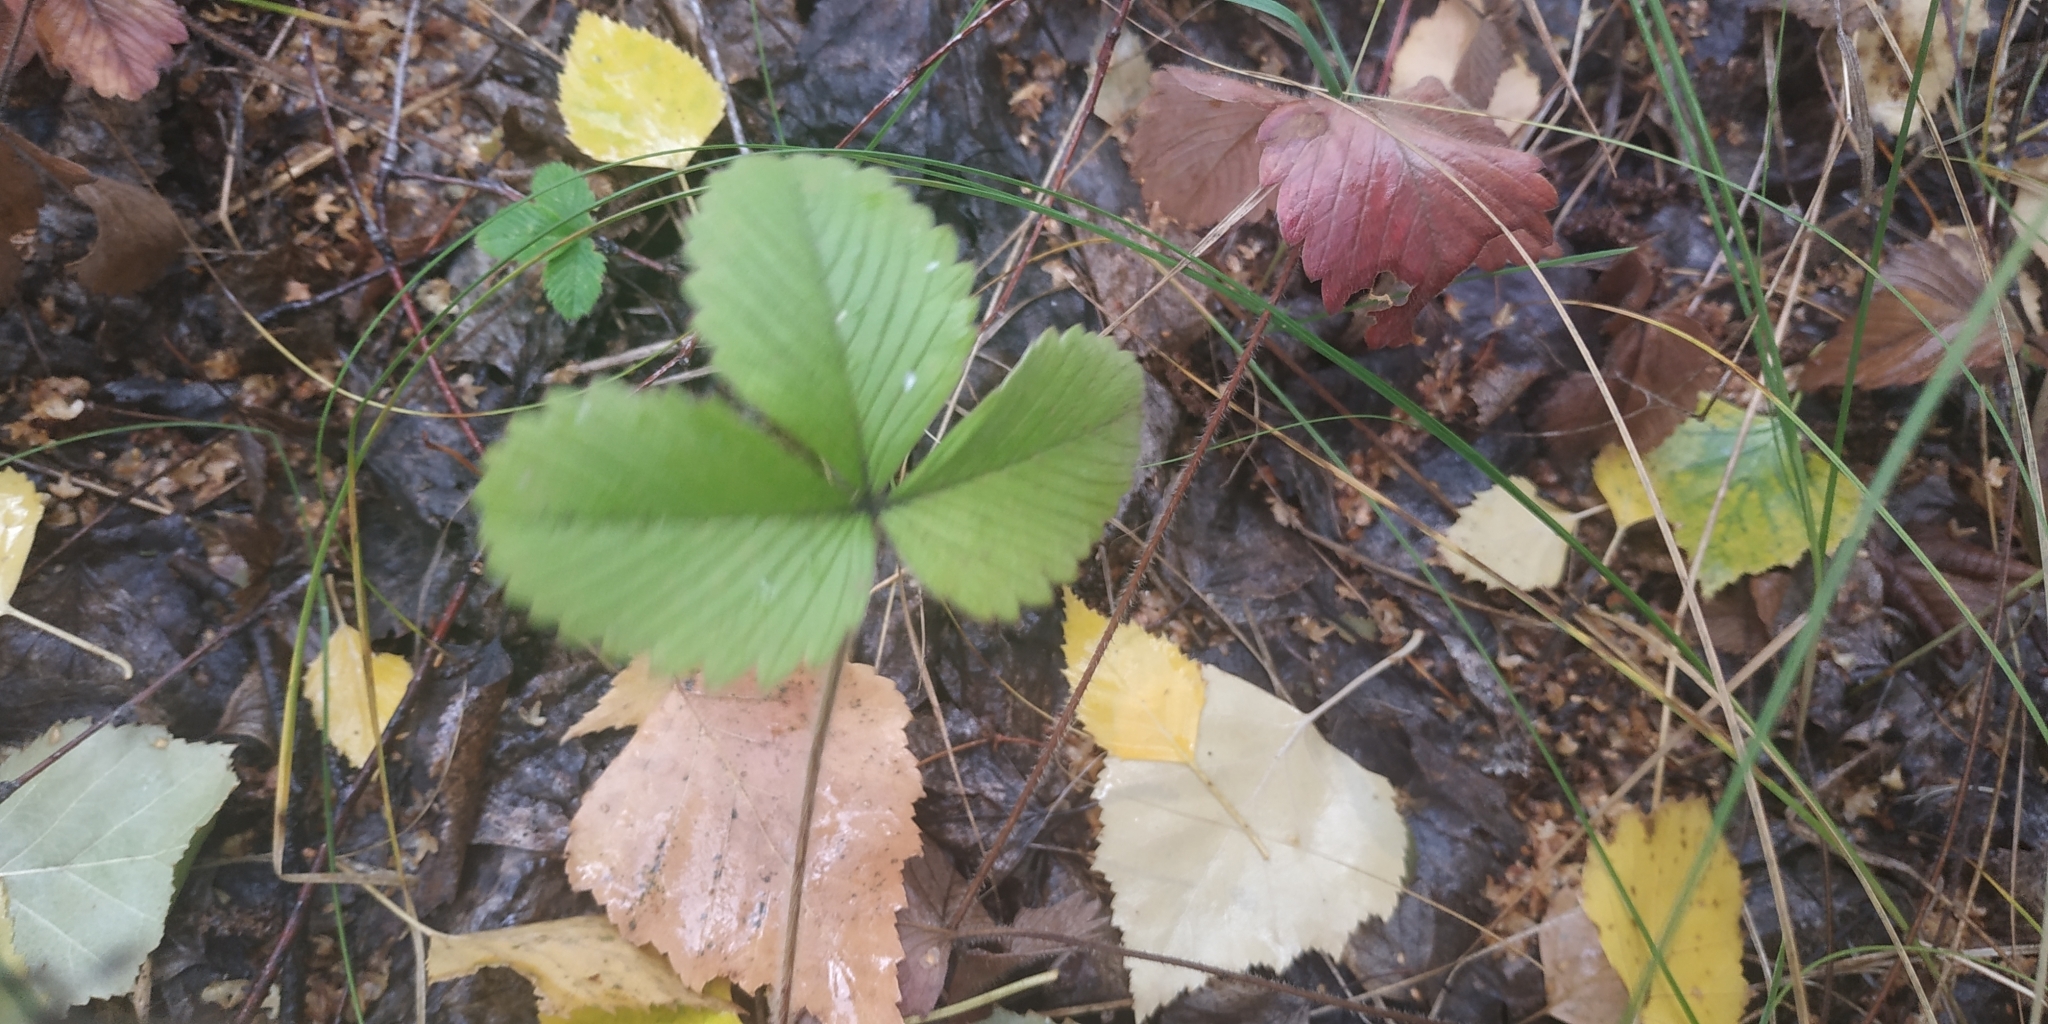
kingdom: Plantae
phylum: Tracheophyta
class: Magnoliopsida
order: Rosales
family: Rosaceae
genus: Fragaria
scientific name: Fragaria viridis
